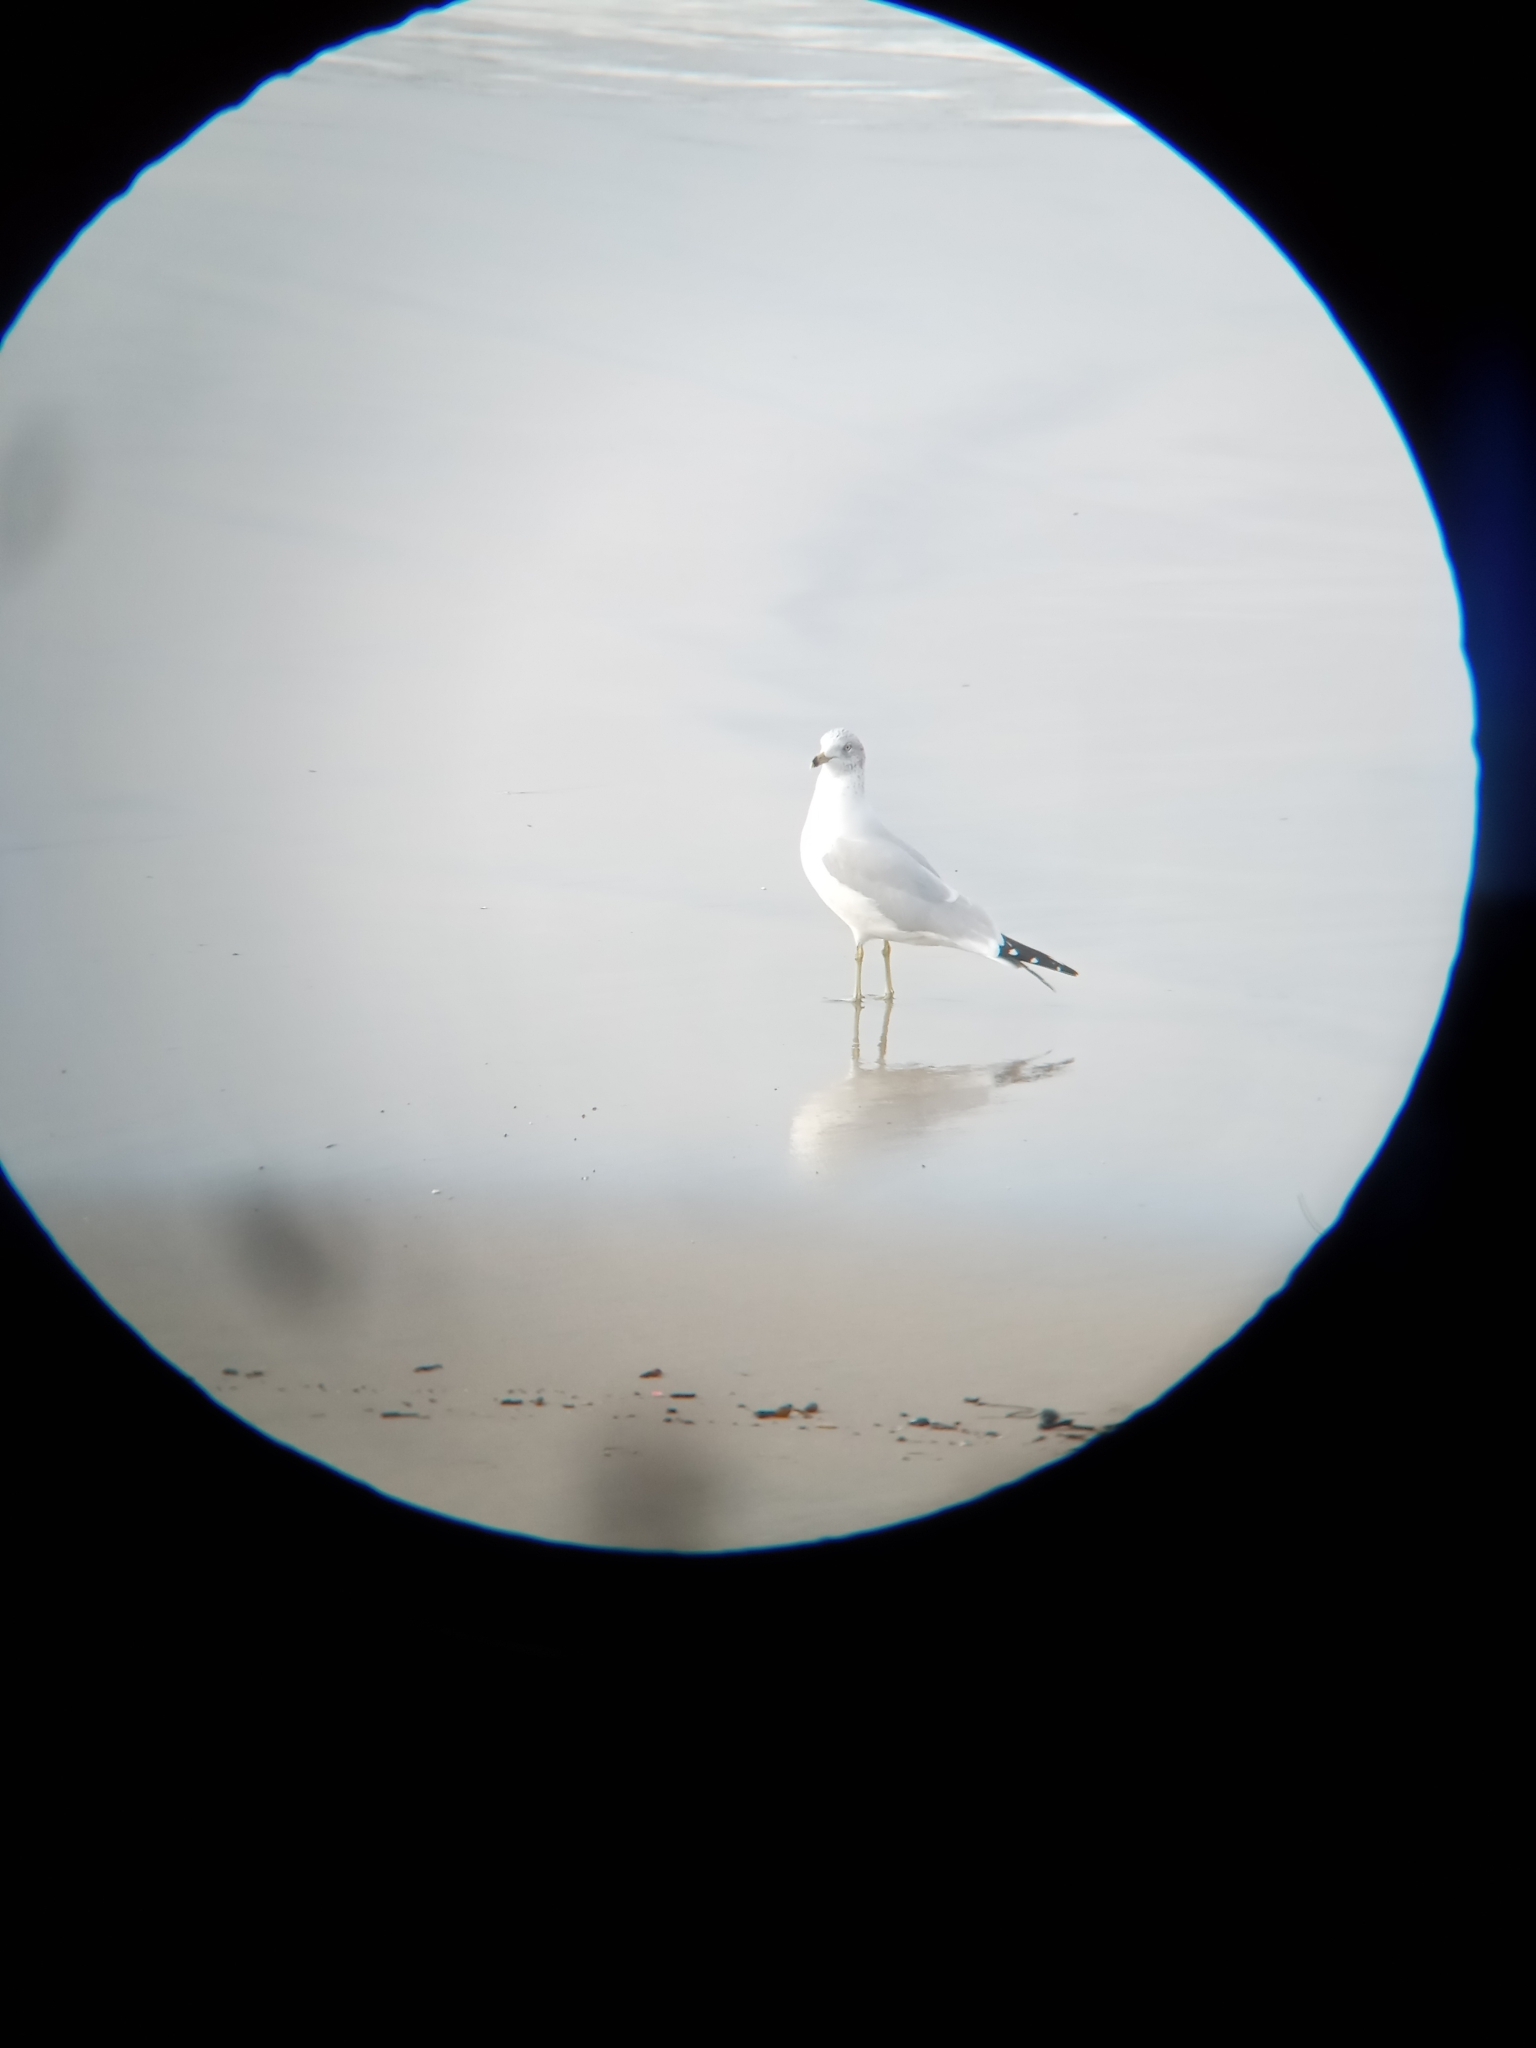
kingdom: Animalia
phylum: Chordata
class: Aves
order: Charadriiformes
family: Laridae
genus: Larus
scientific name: Larus delawarensis
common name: Ring-billed gull
